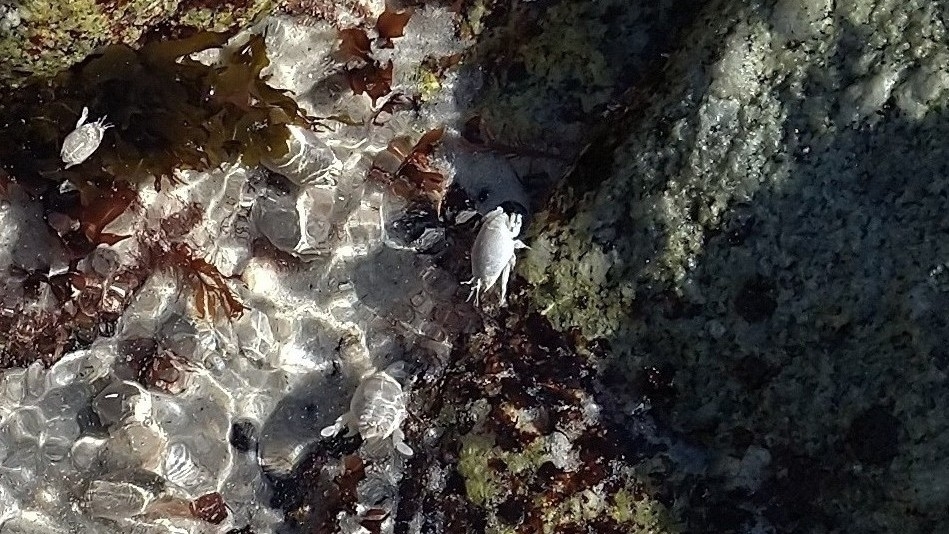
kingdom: Animalia
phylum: Arthropoda
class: Malacostraca
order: Decapoda
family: Hippidae
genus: Emerita
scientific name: Emerita analoga
